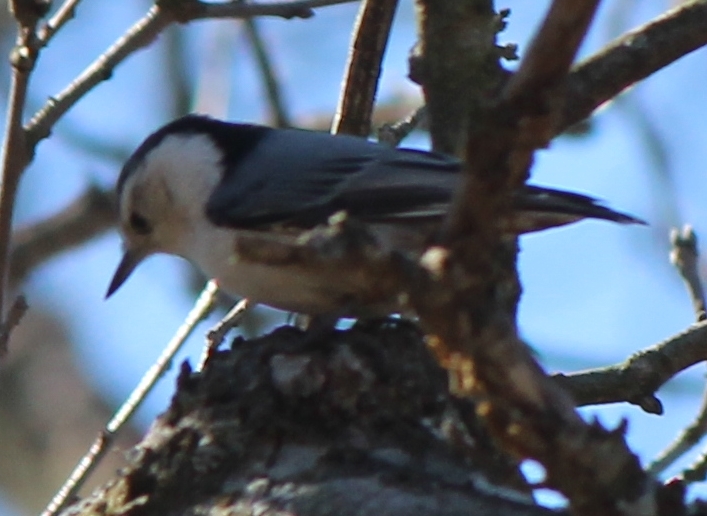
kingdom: Animalia
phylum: Chordata
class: Aves
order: Passeriformes
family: Sittidae
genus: Sitta
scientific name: Sitta carolinensis
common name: White-breasted nuthatch
